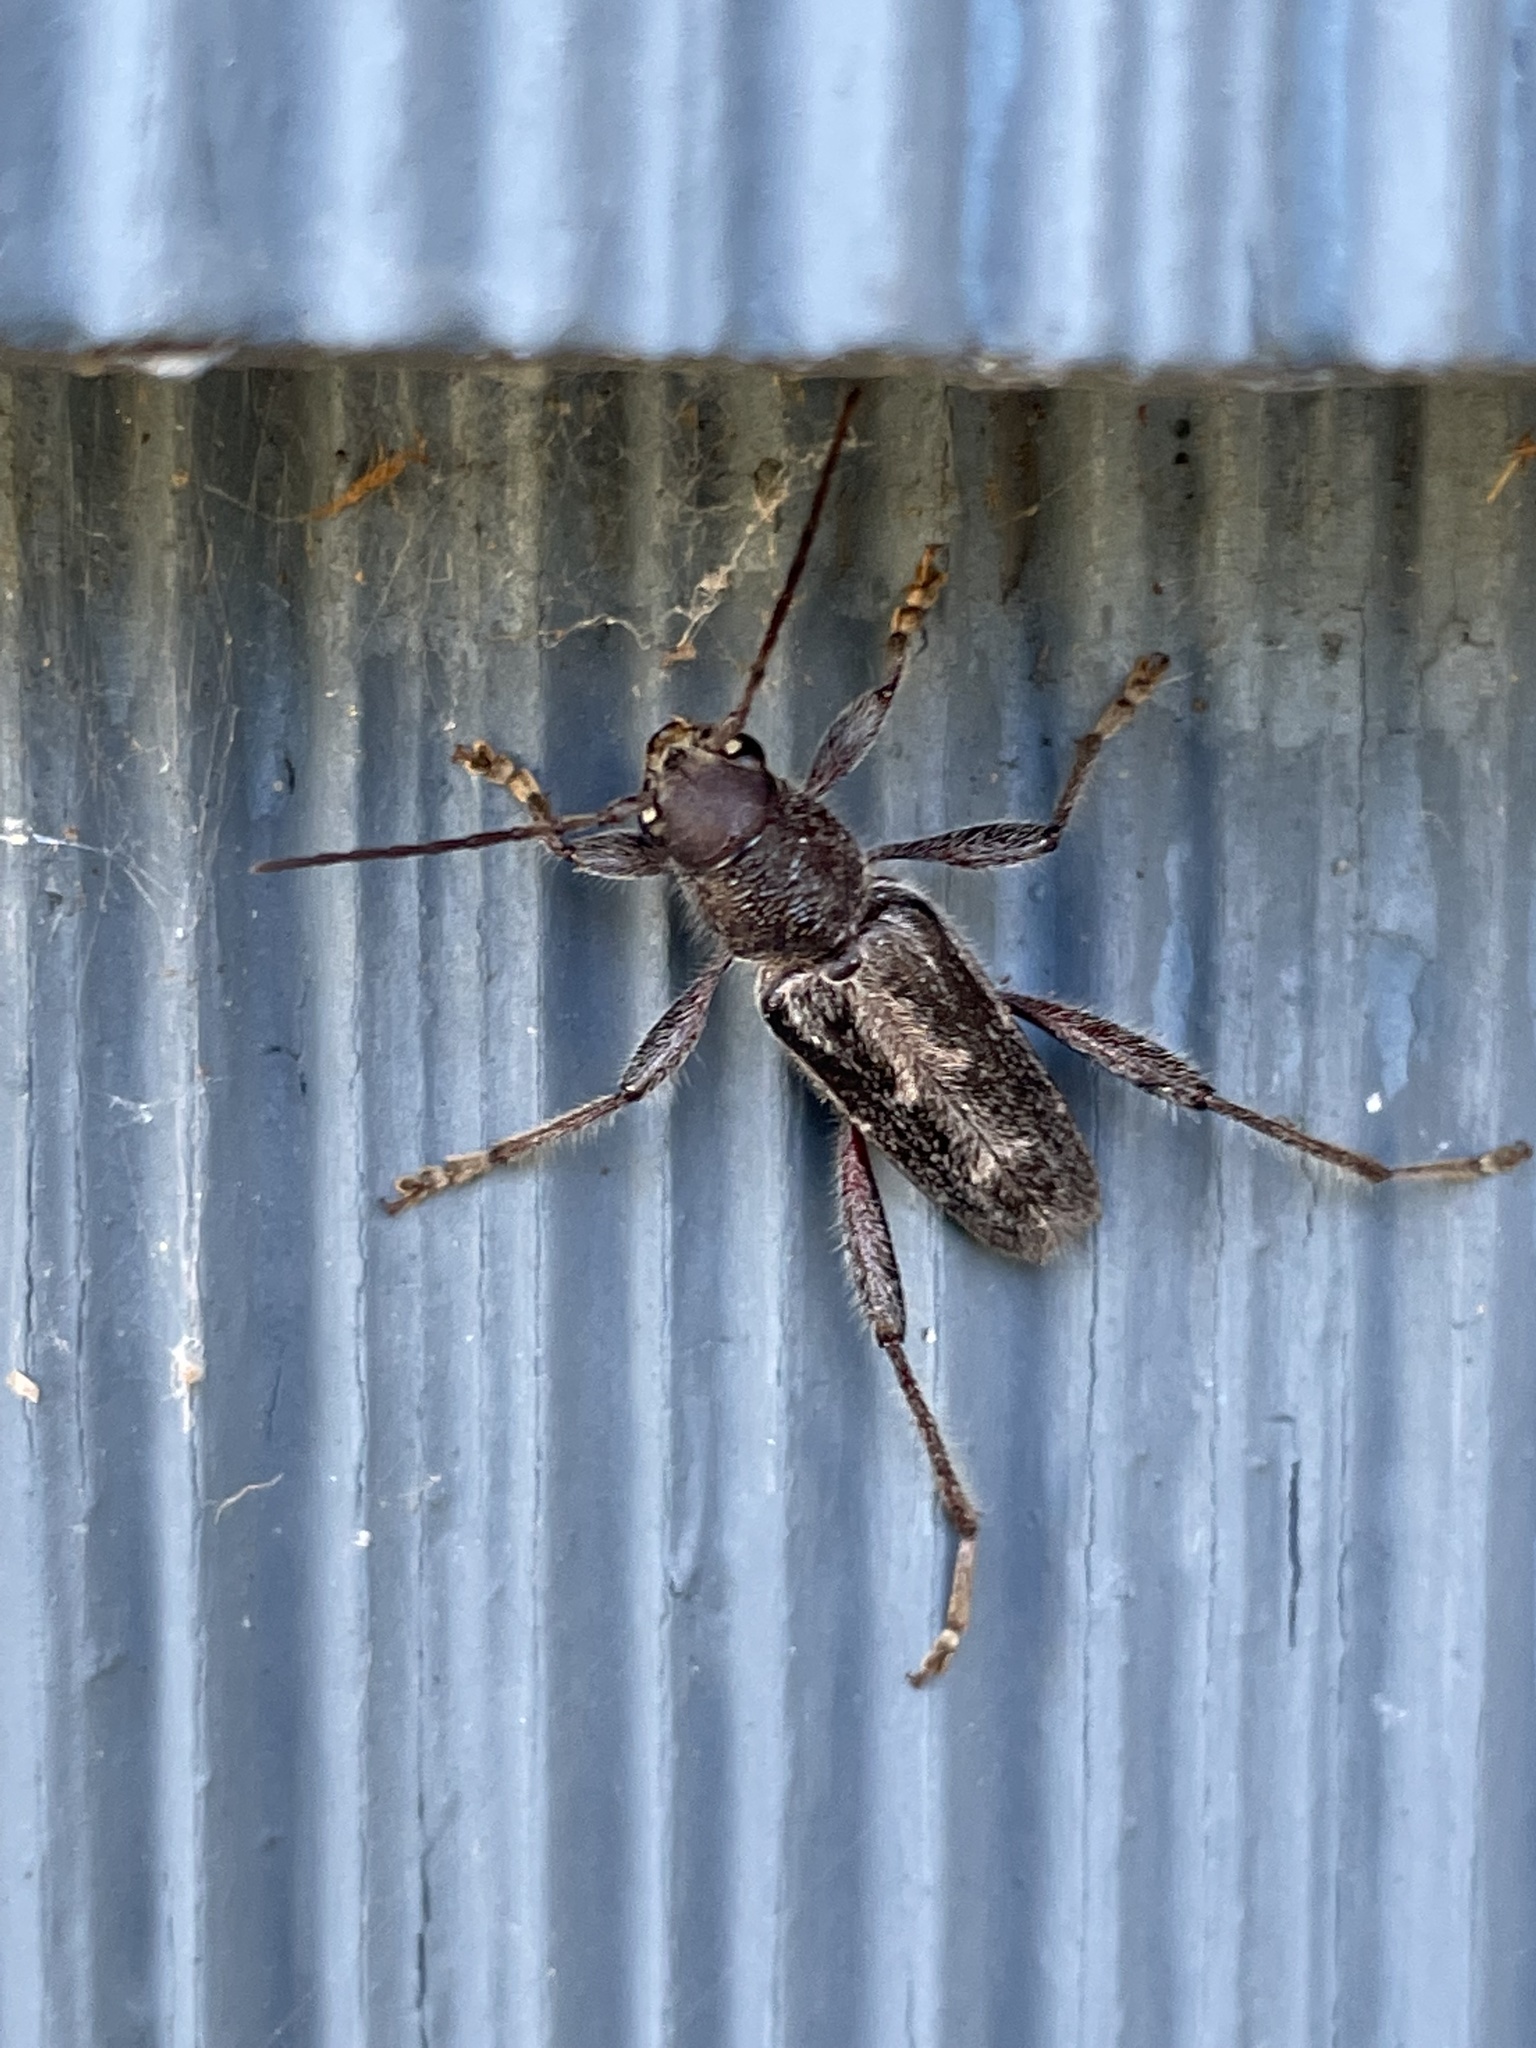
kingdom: Animalia
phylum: Arthropoda
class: Insecta
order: Coleoptera
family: Cerambycidae
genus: Xylotrechus
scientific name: Xylotrechus sagittatus
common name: Arrowhead borer
